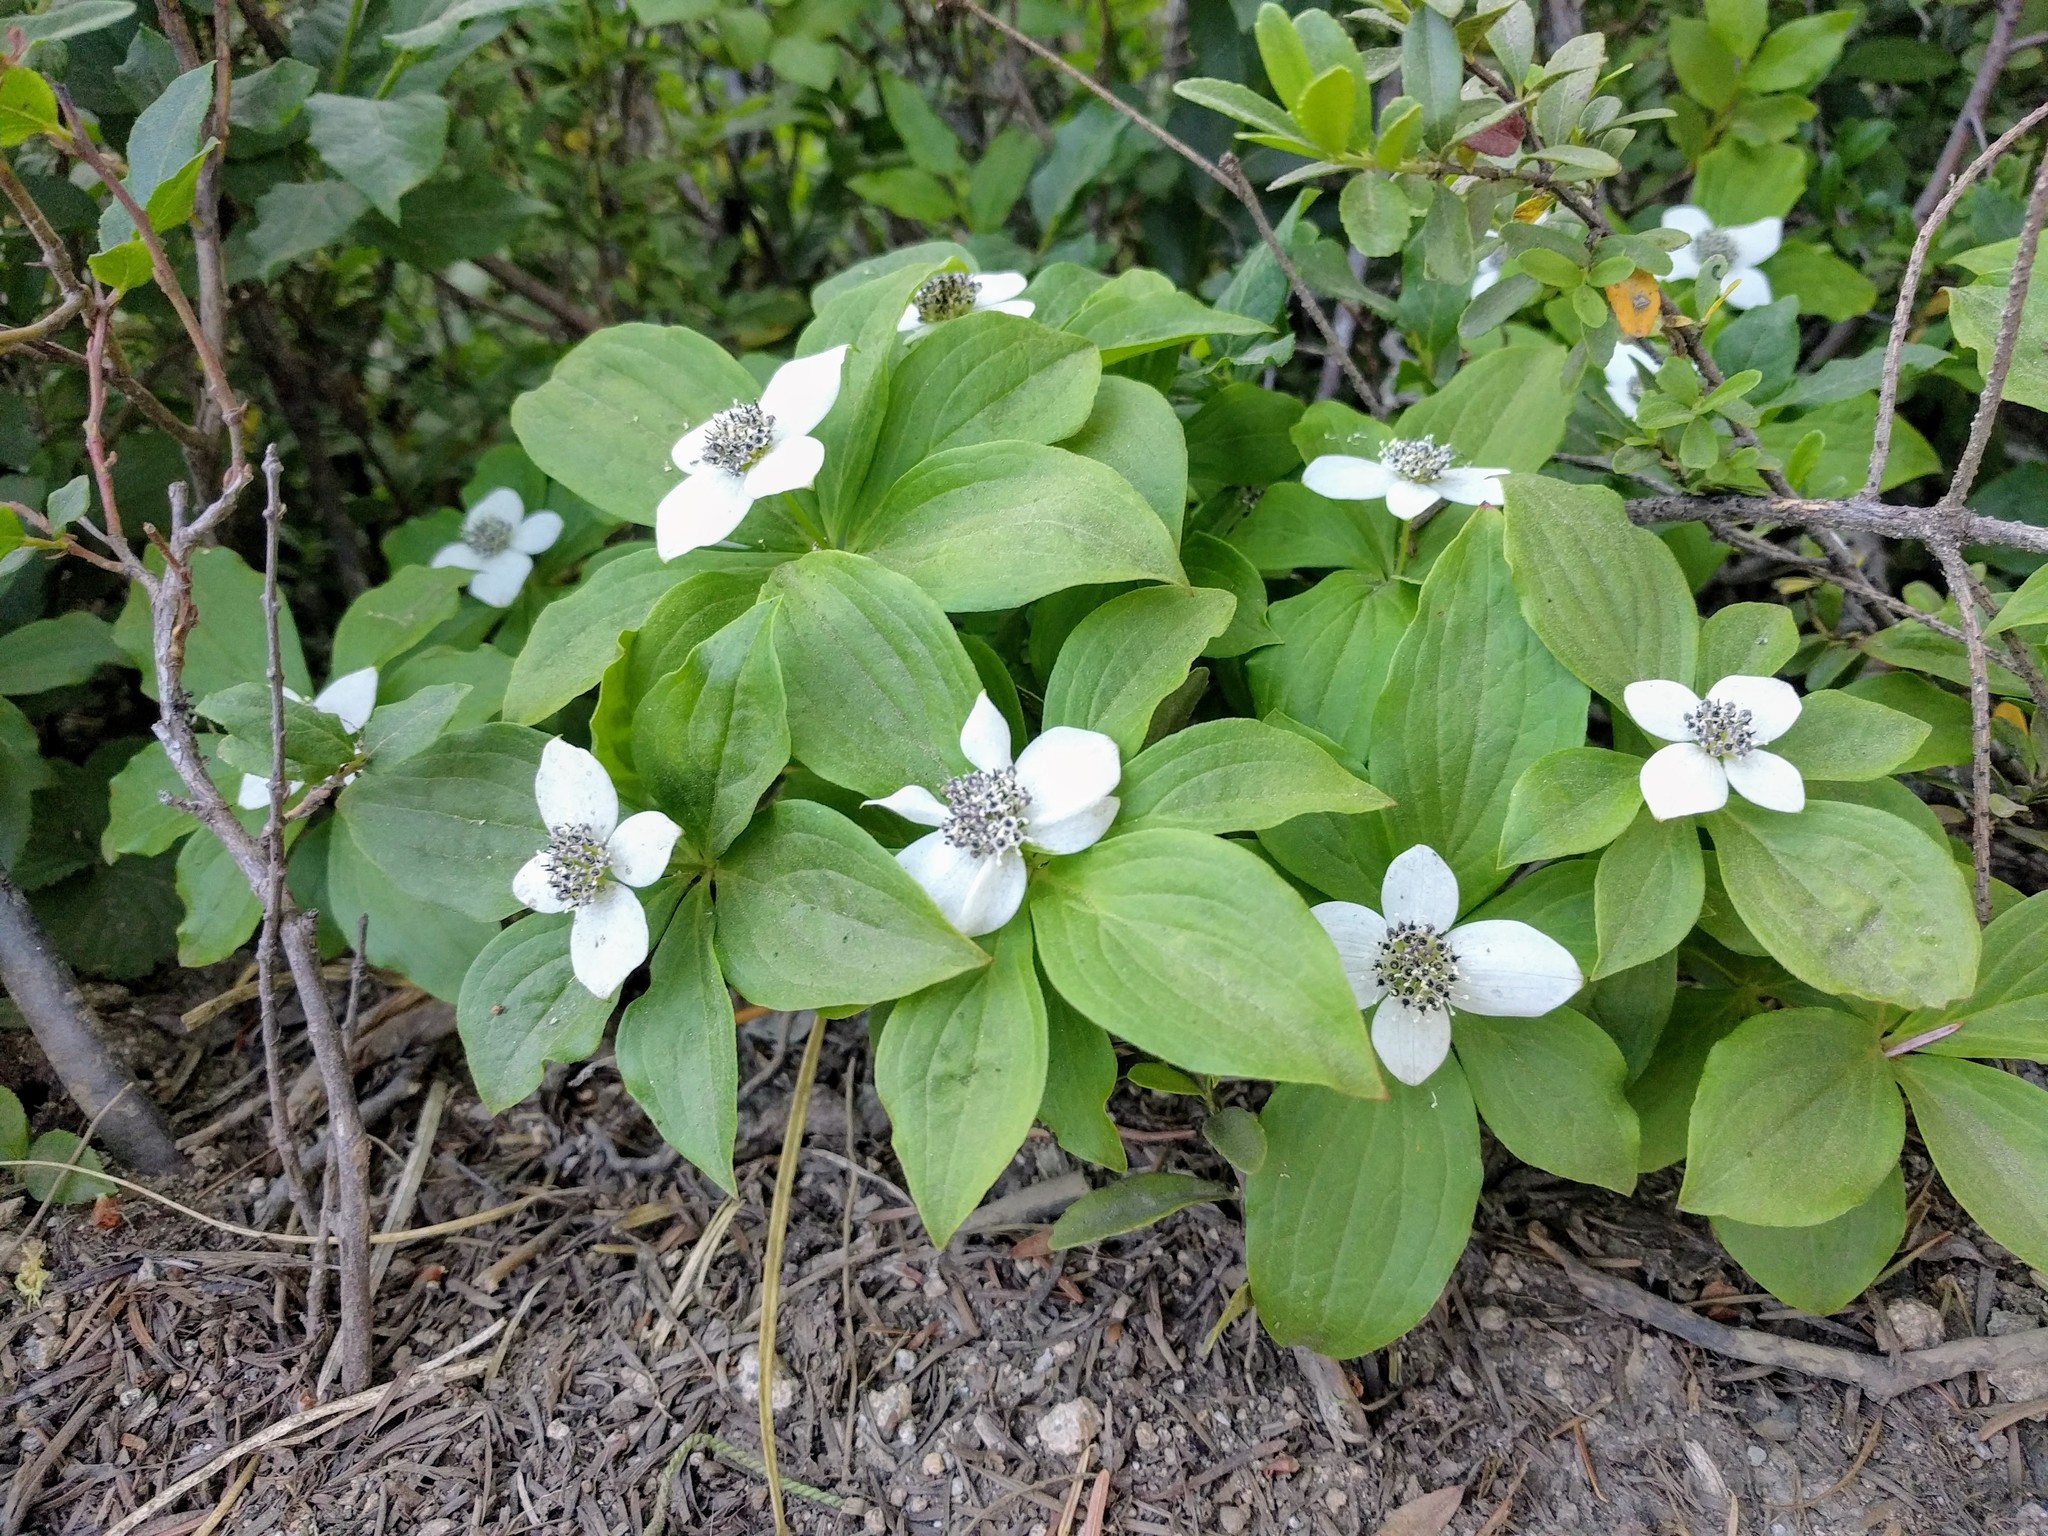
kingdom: Plantae
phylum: Tracheophyta
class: Magnoliopsida
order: Cornales
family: Cornaceae
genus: Cornus
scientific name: Cornus unalaschkensis
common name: Alaska bunchberry
